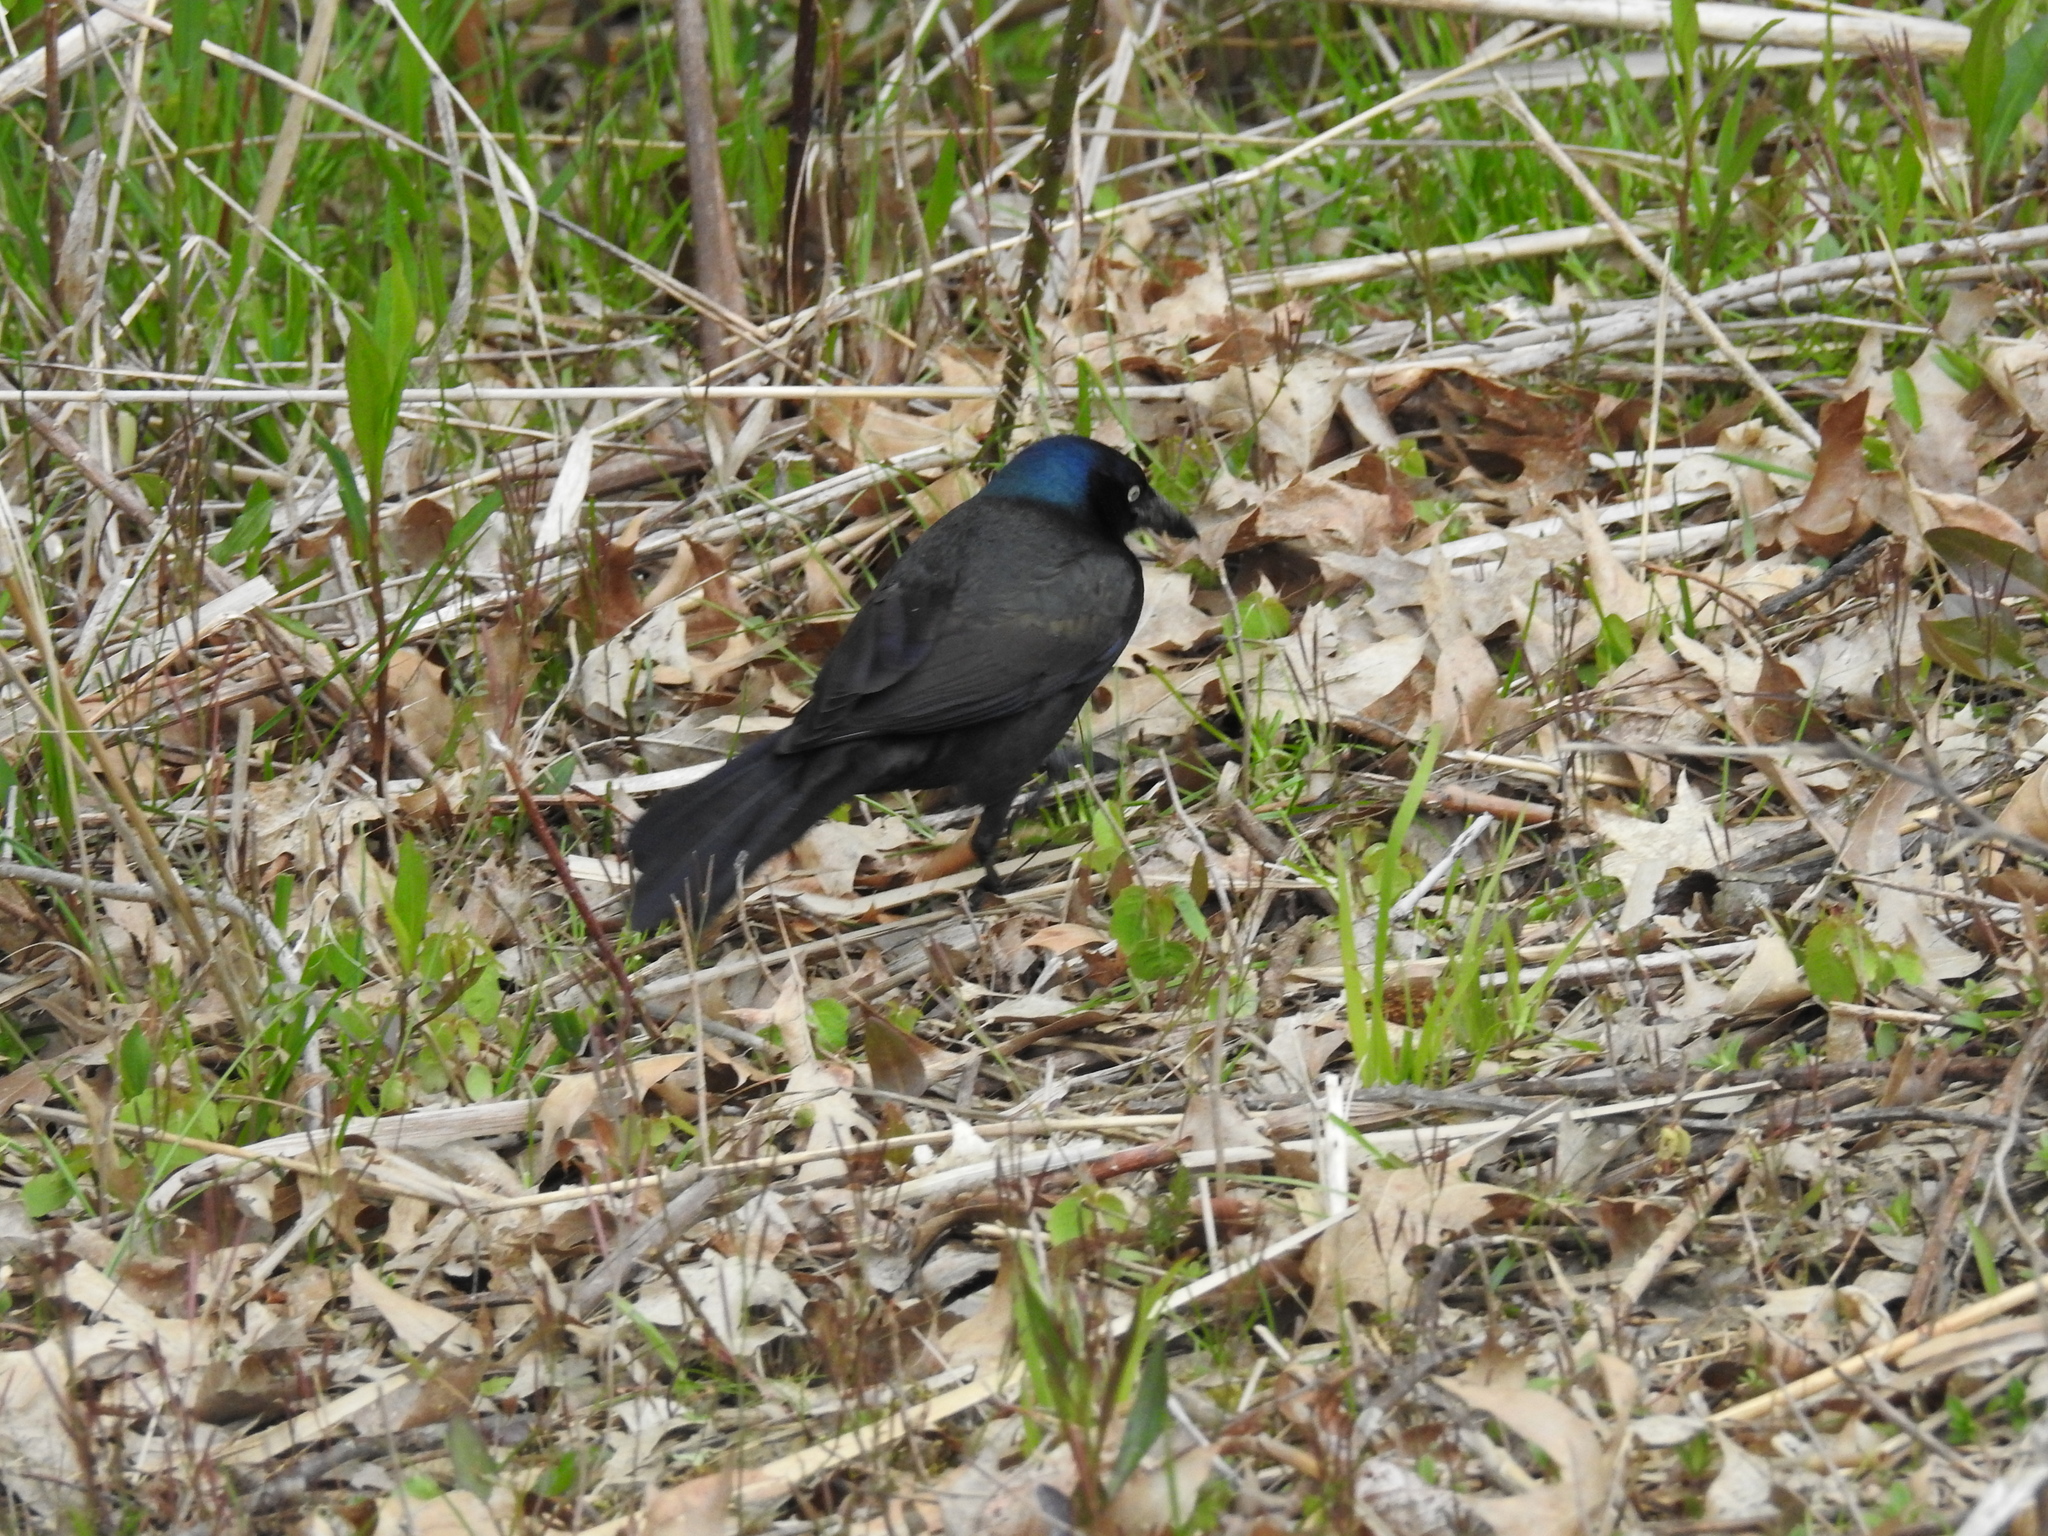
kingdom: Animalia
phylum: Chordata
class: Aves
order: Passeriformes
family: Icteridae
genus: Quiscalus
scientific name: Quiscalus quiscula
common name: Common grackle
